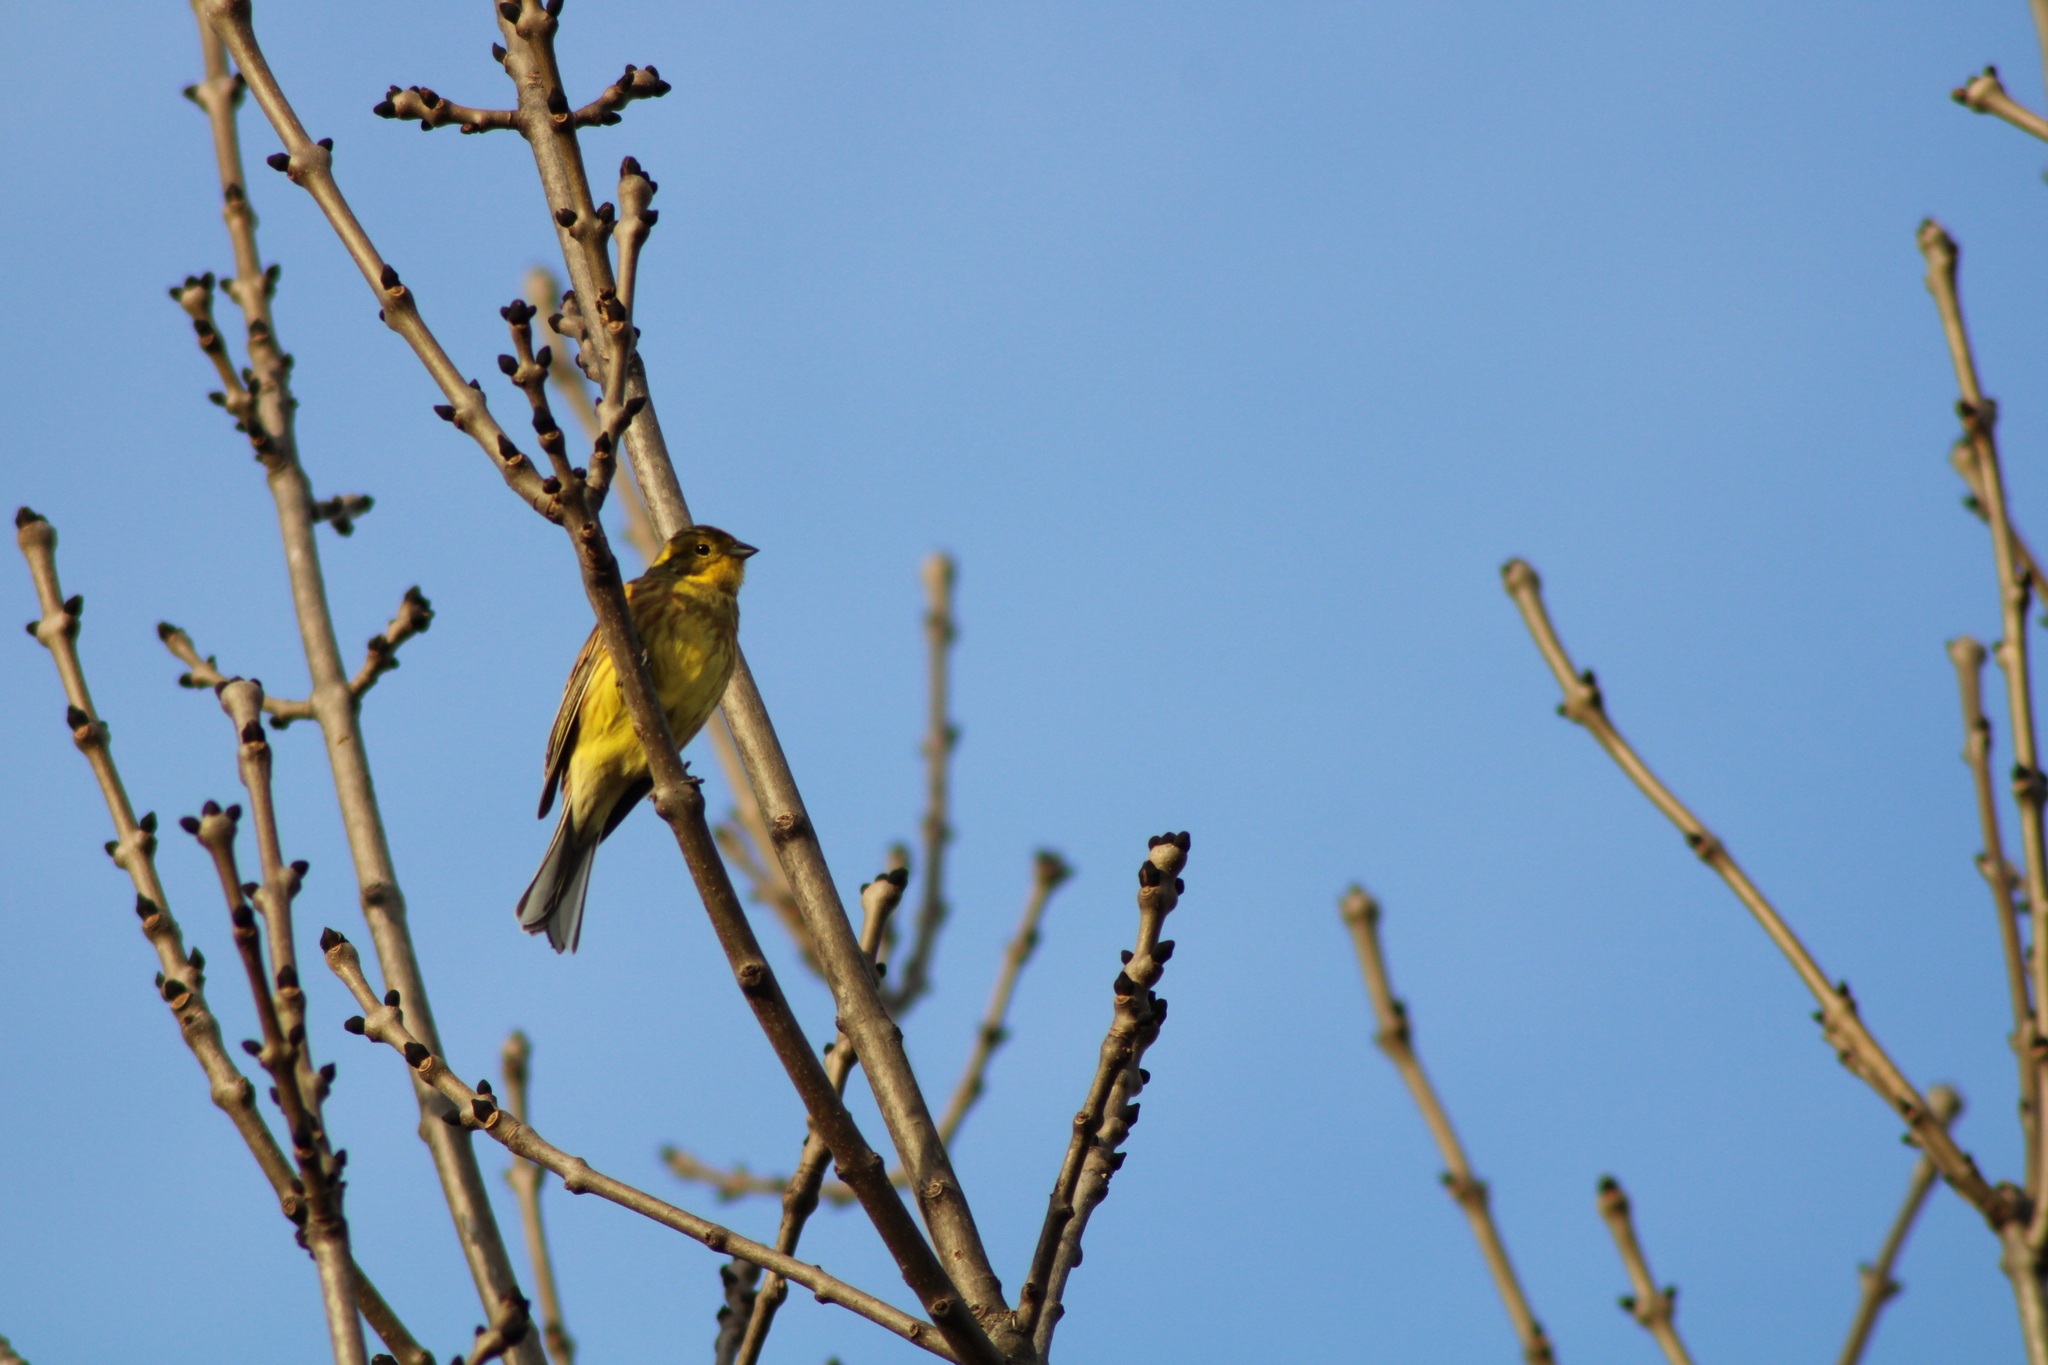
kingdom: Animalia
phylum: Chordata
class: Aves
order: Passeriformes
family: Emberizidae
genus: Emberiza
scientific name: Emberiza citrinella
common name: Yellowhammer
